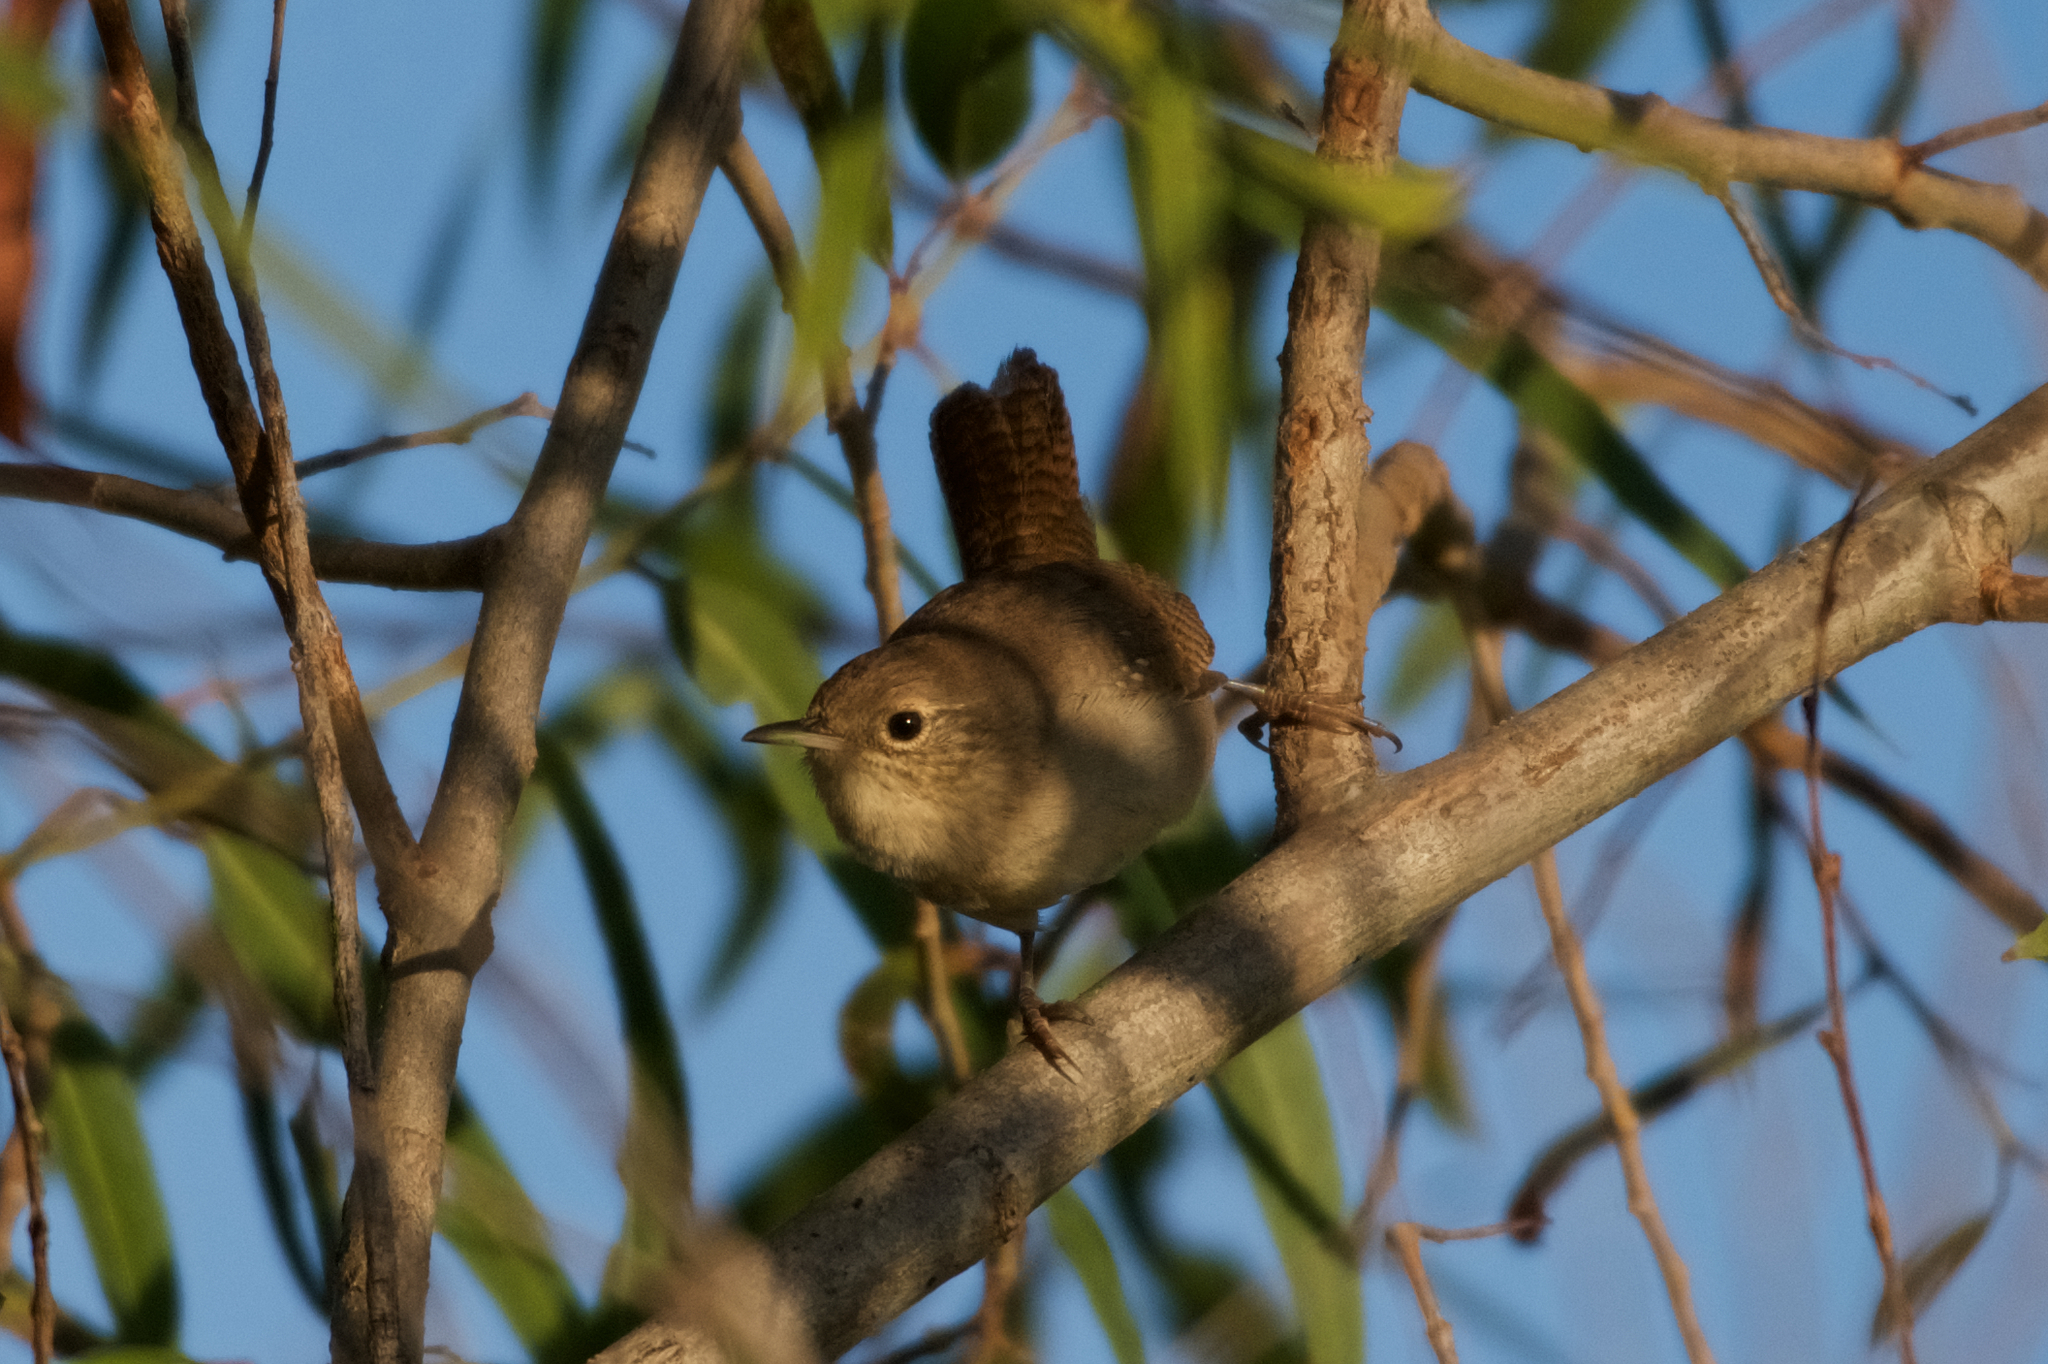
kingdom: Animalia
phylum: Chordata
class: Aves
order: Passeriformes
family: Troglodytidae
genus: Troglodytes
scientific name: Troglodytes aedon
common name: House wren
